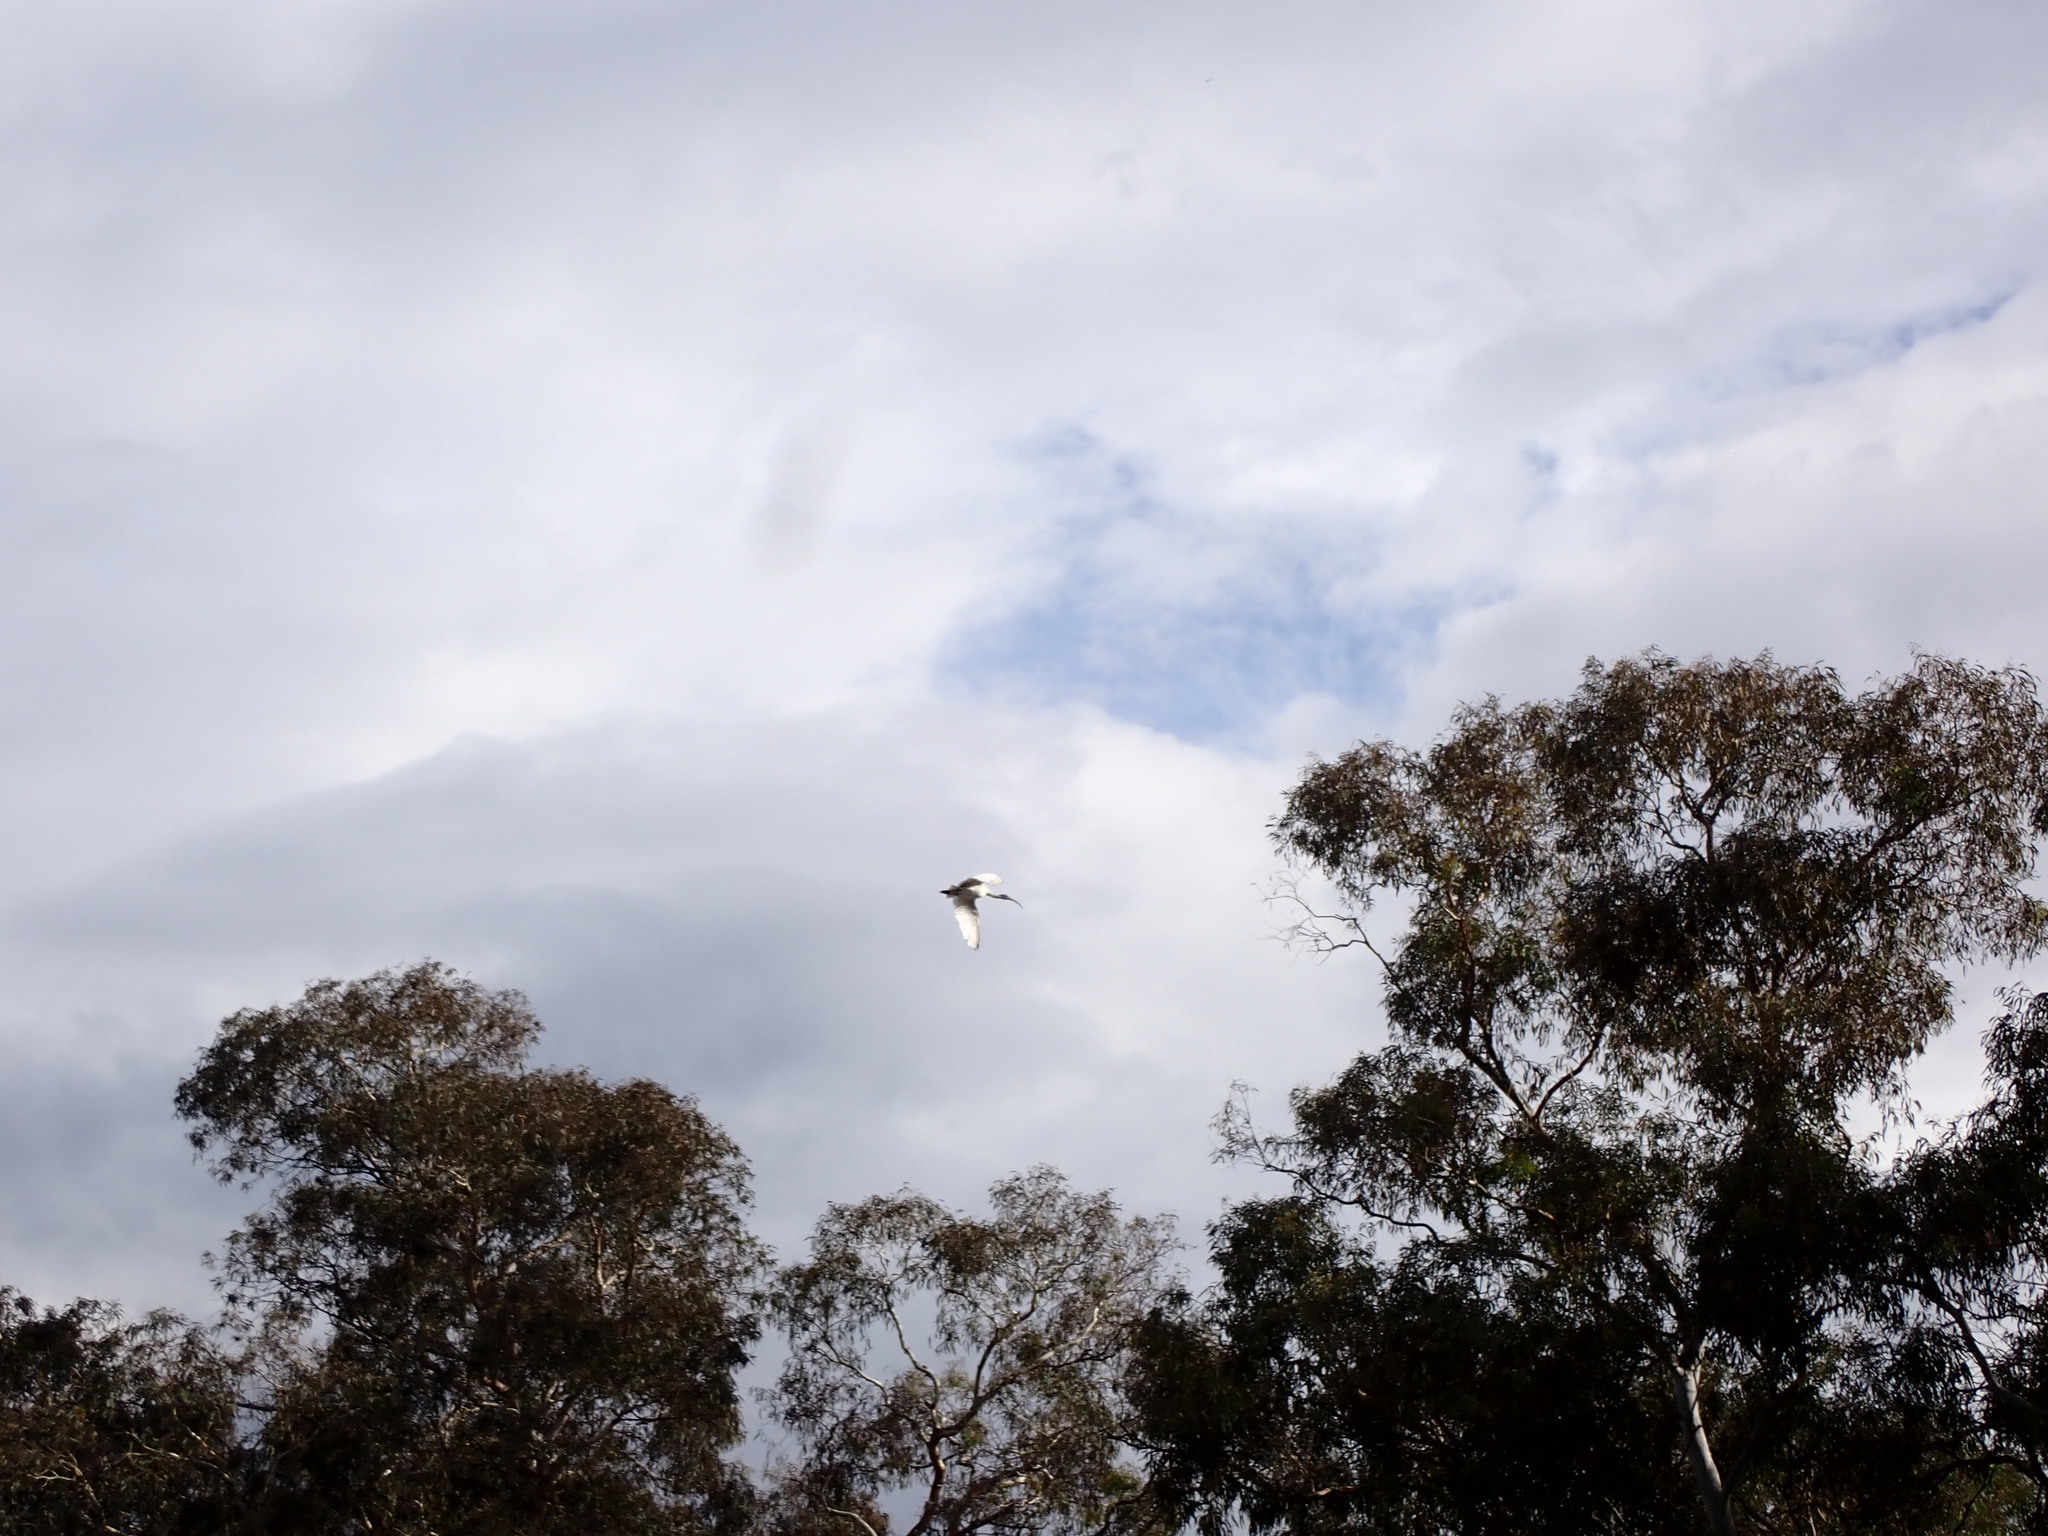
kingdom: Animalia
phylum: Chordata
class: Aves
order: Pelecaniformes
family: Threskiornithidae
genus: Threskiornis
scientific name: Threskiornis molucca
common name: Australian white ibis
